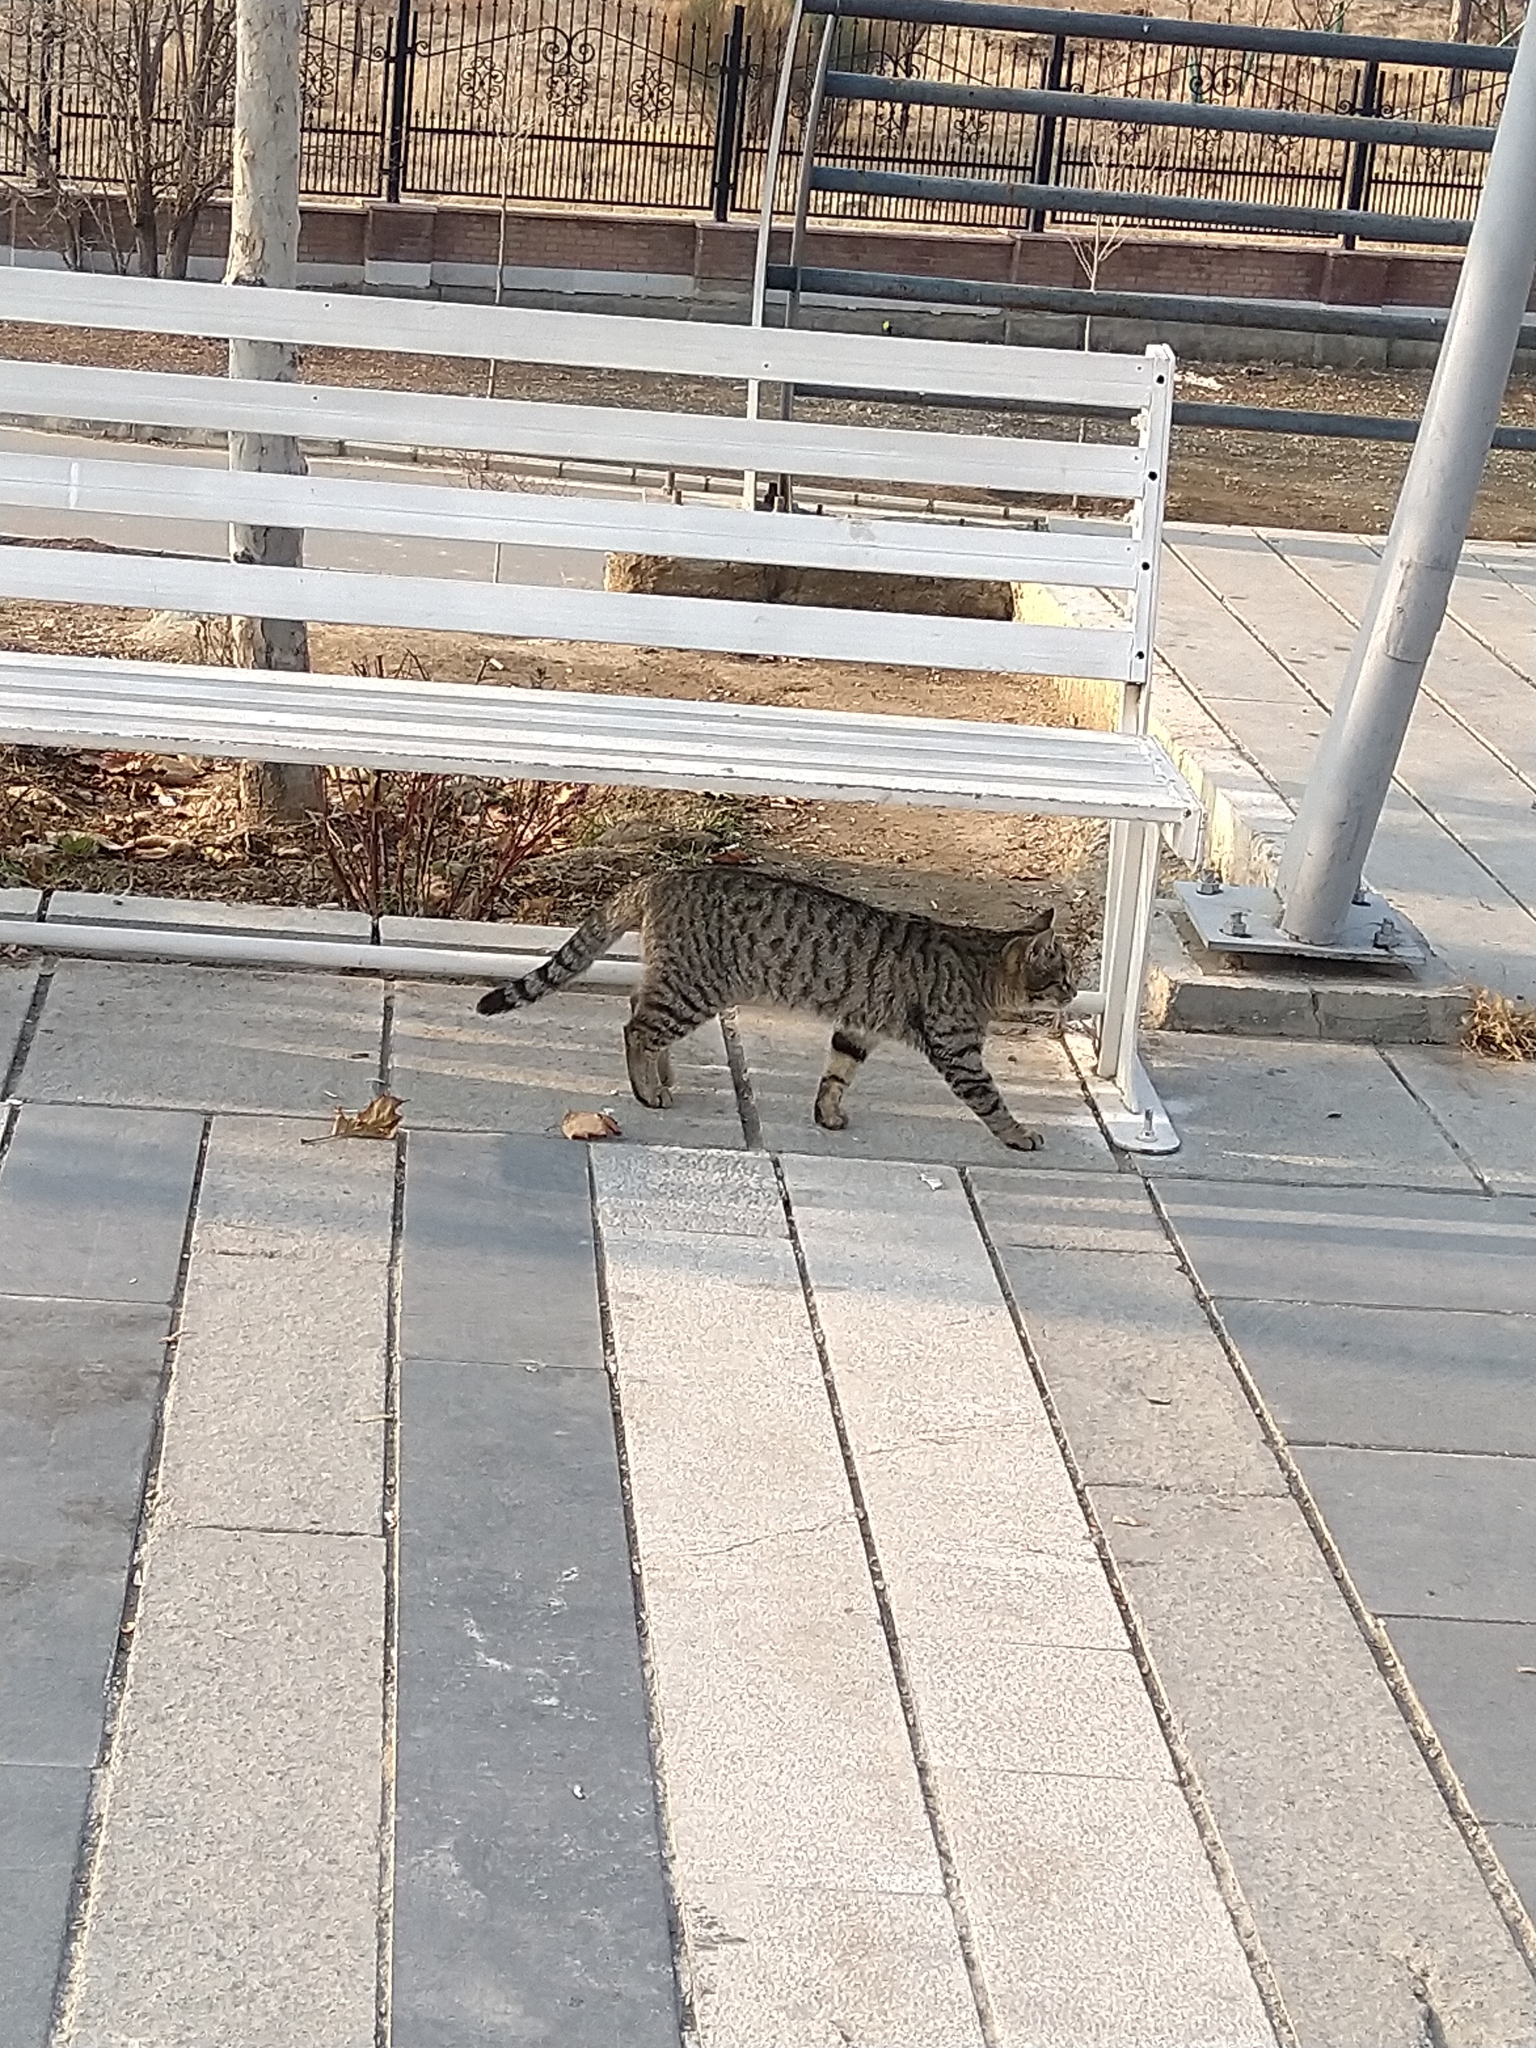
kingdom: Animalia
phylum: Chordata
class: Mammalia
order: Carnivora
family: Felidae
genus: Felis
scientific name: Felis catus
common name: Domestic cat
